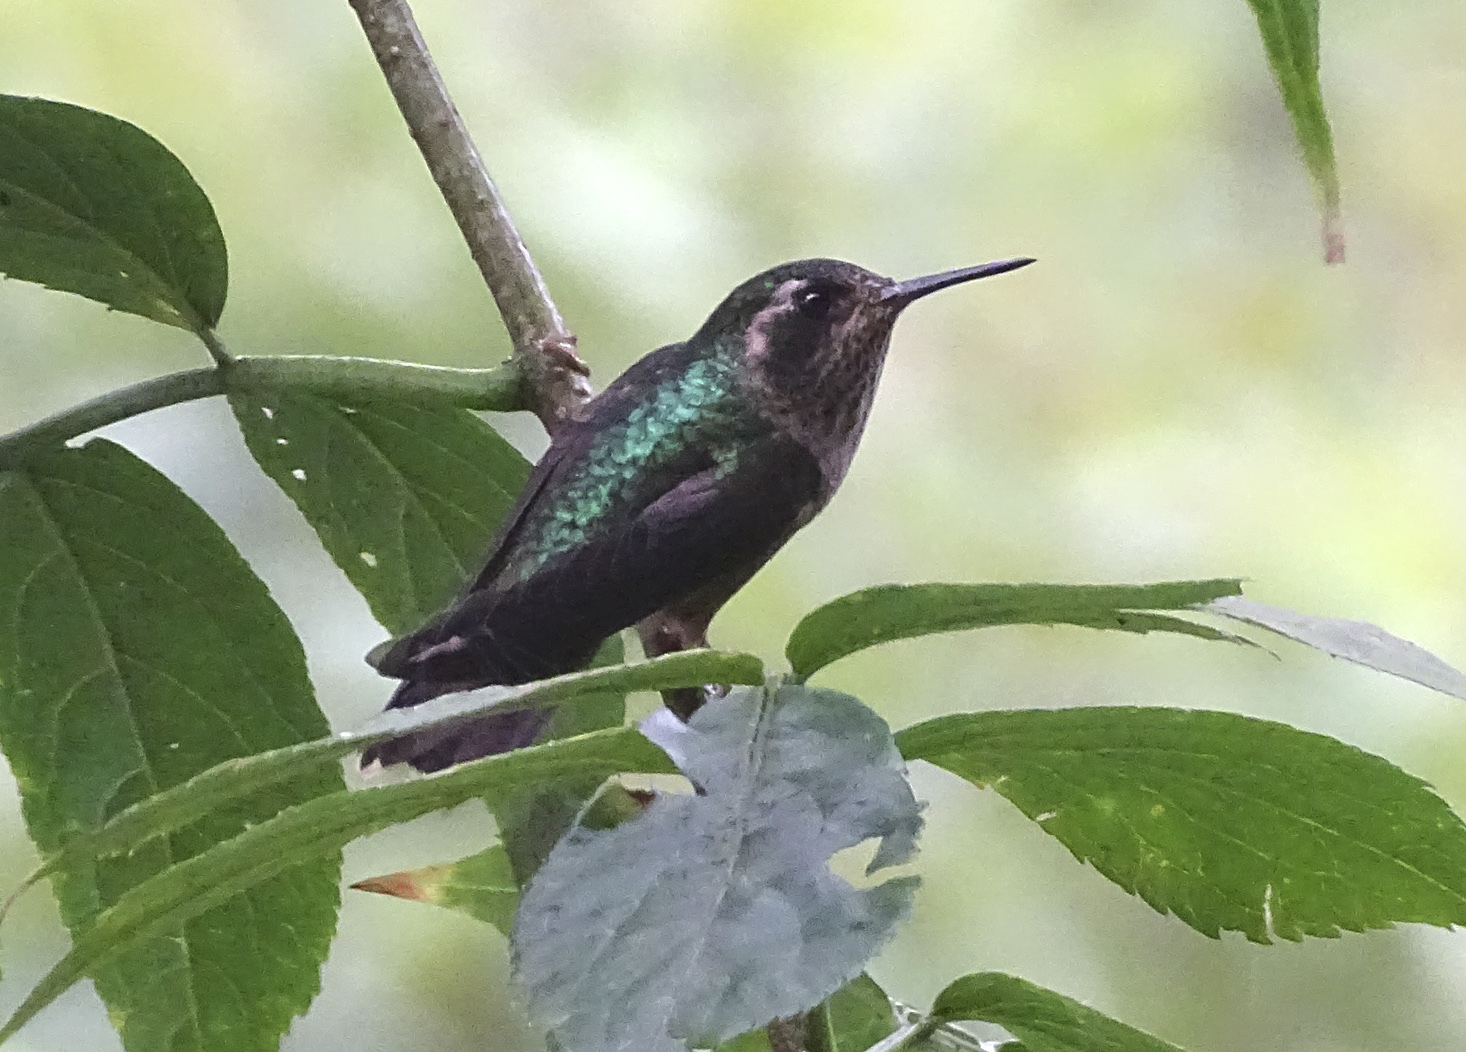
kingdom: Animalia
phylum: Chordata
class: Aves
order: Apodiformes
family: Trochilidae
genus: Adelomyia
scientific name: Adelomyia melanogenys
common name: Speckled hummingbird
